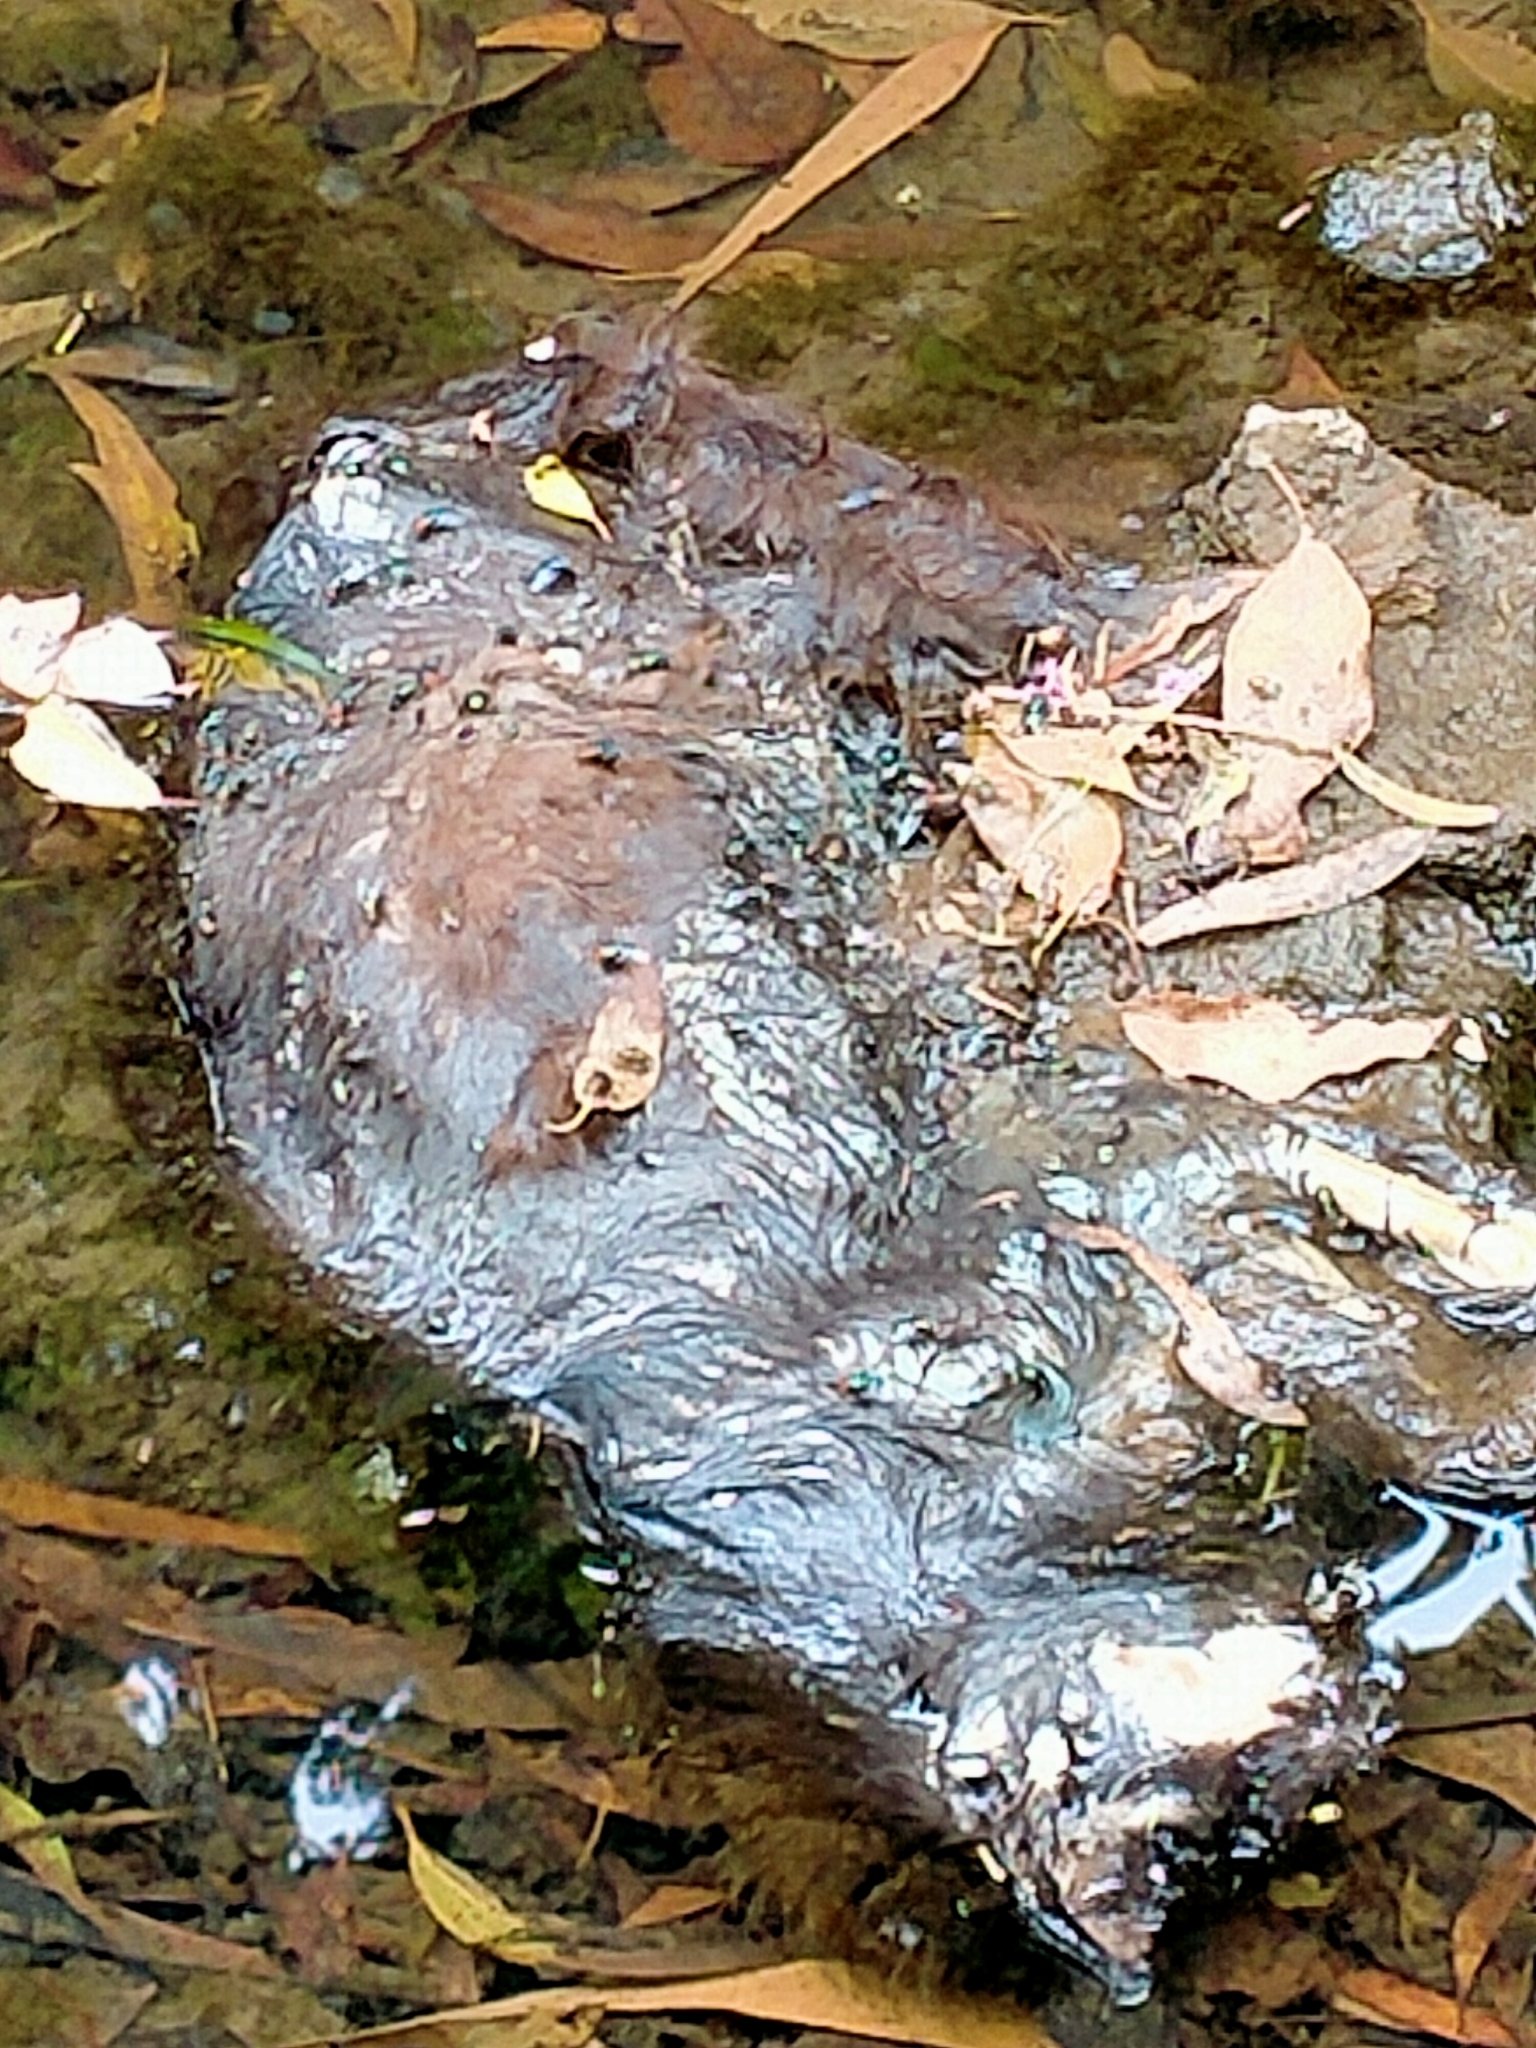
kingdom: Animalia
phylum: Chordata
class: Mammalia
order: Carnivora
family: Felidae
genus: Felis
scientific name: Felis catus
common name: Domestic cat
